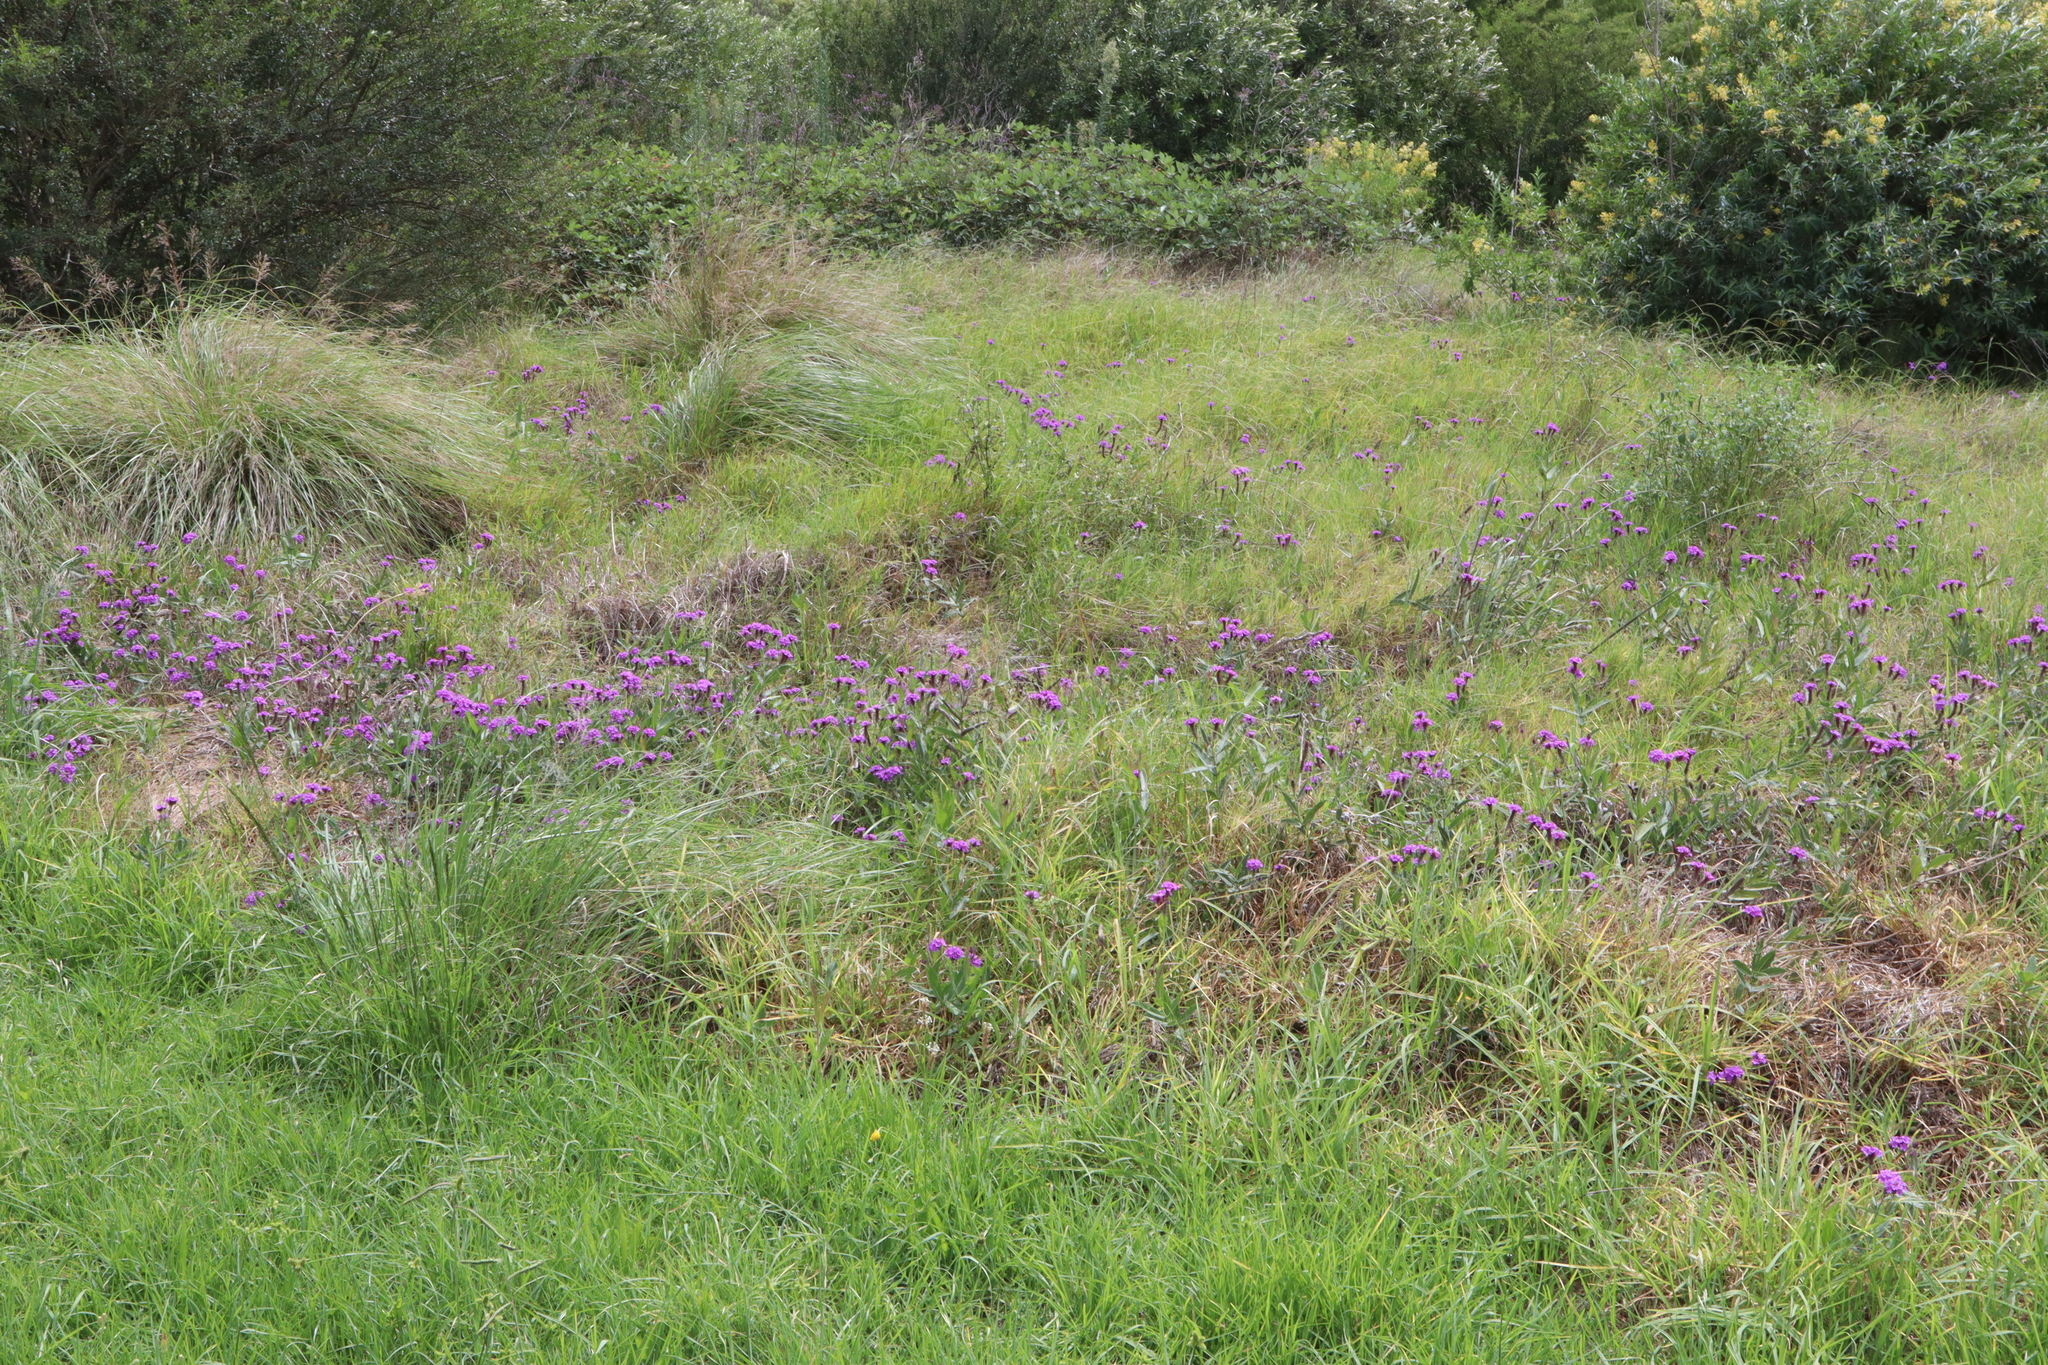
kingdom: Plantae
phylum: Tracheophyta
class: Magnoliopsida
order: Lamiales
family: Verbenaceae
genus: Verbena
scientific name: Verbena rigida
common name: Slender vervain
